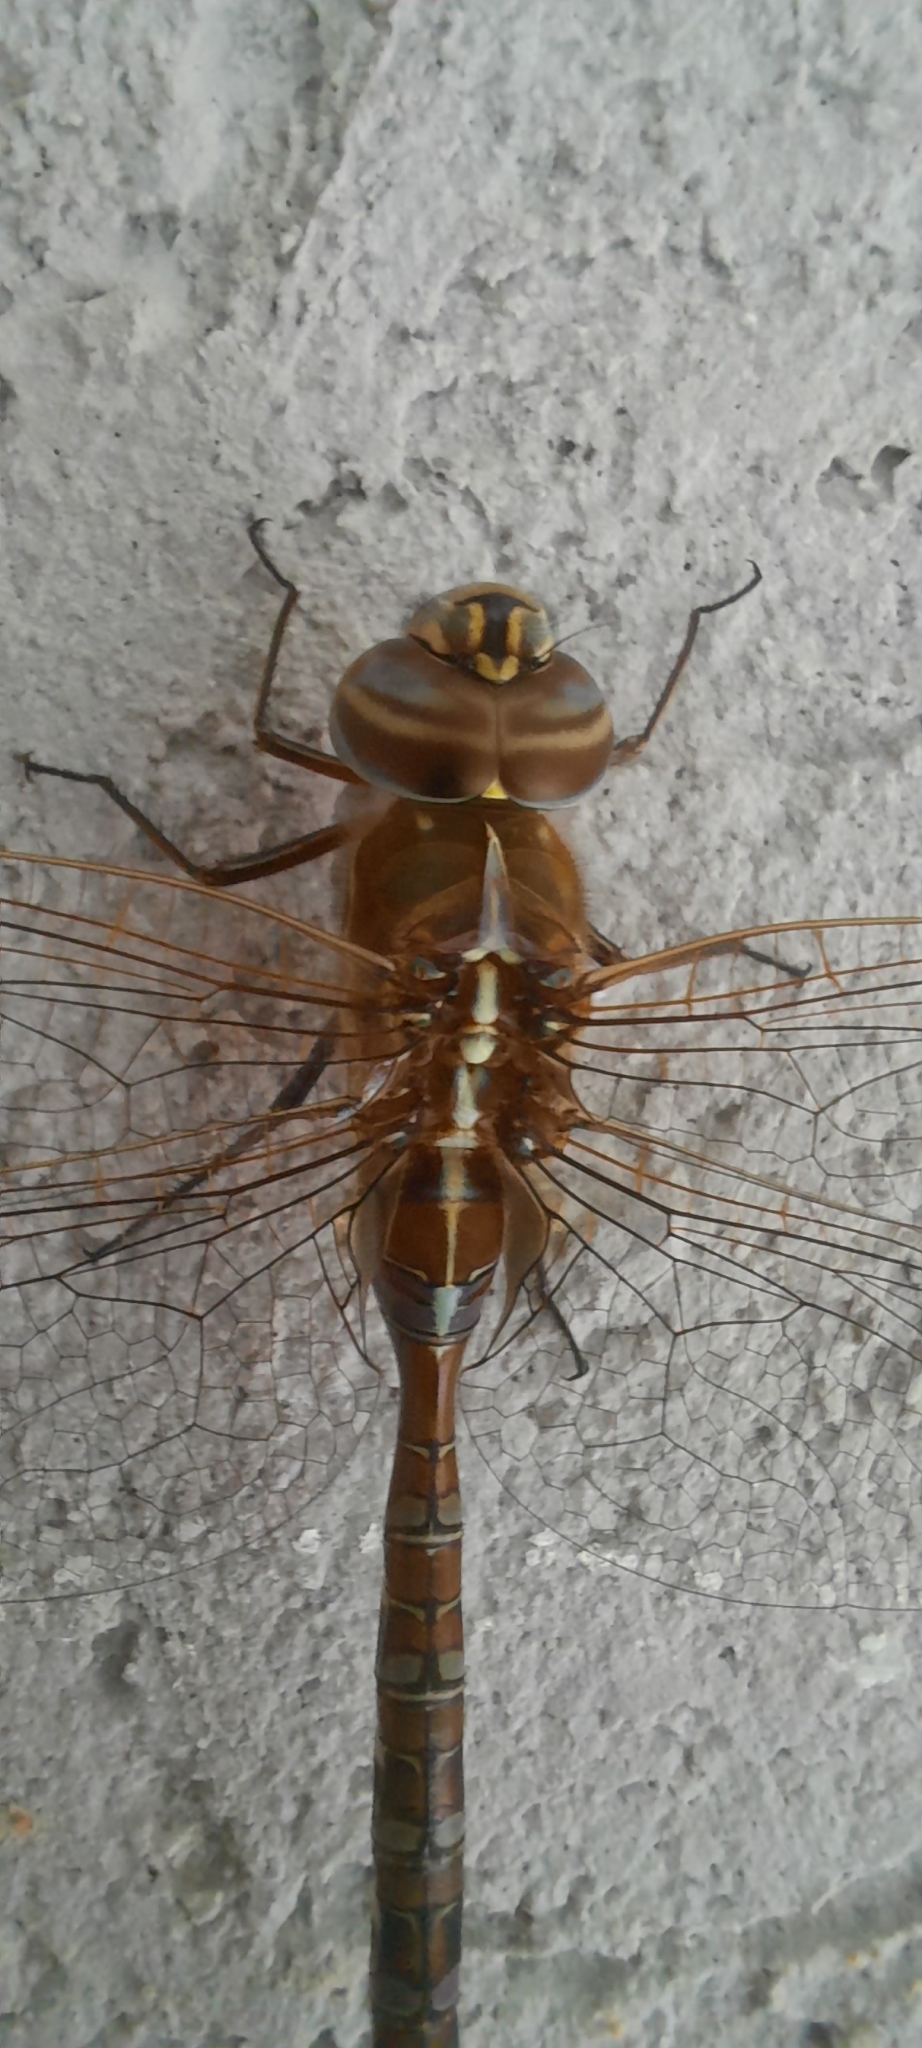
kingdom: Animalia
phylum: Arthropoda
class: Insecta
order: Odonata
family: Aeshnidae
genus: Rhionaeschna
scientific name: Rhionaeschna bonariensis
